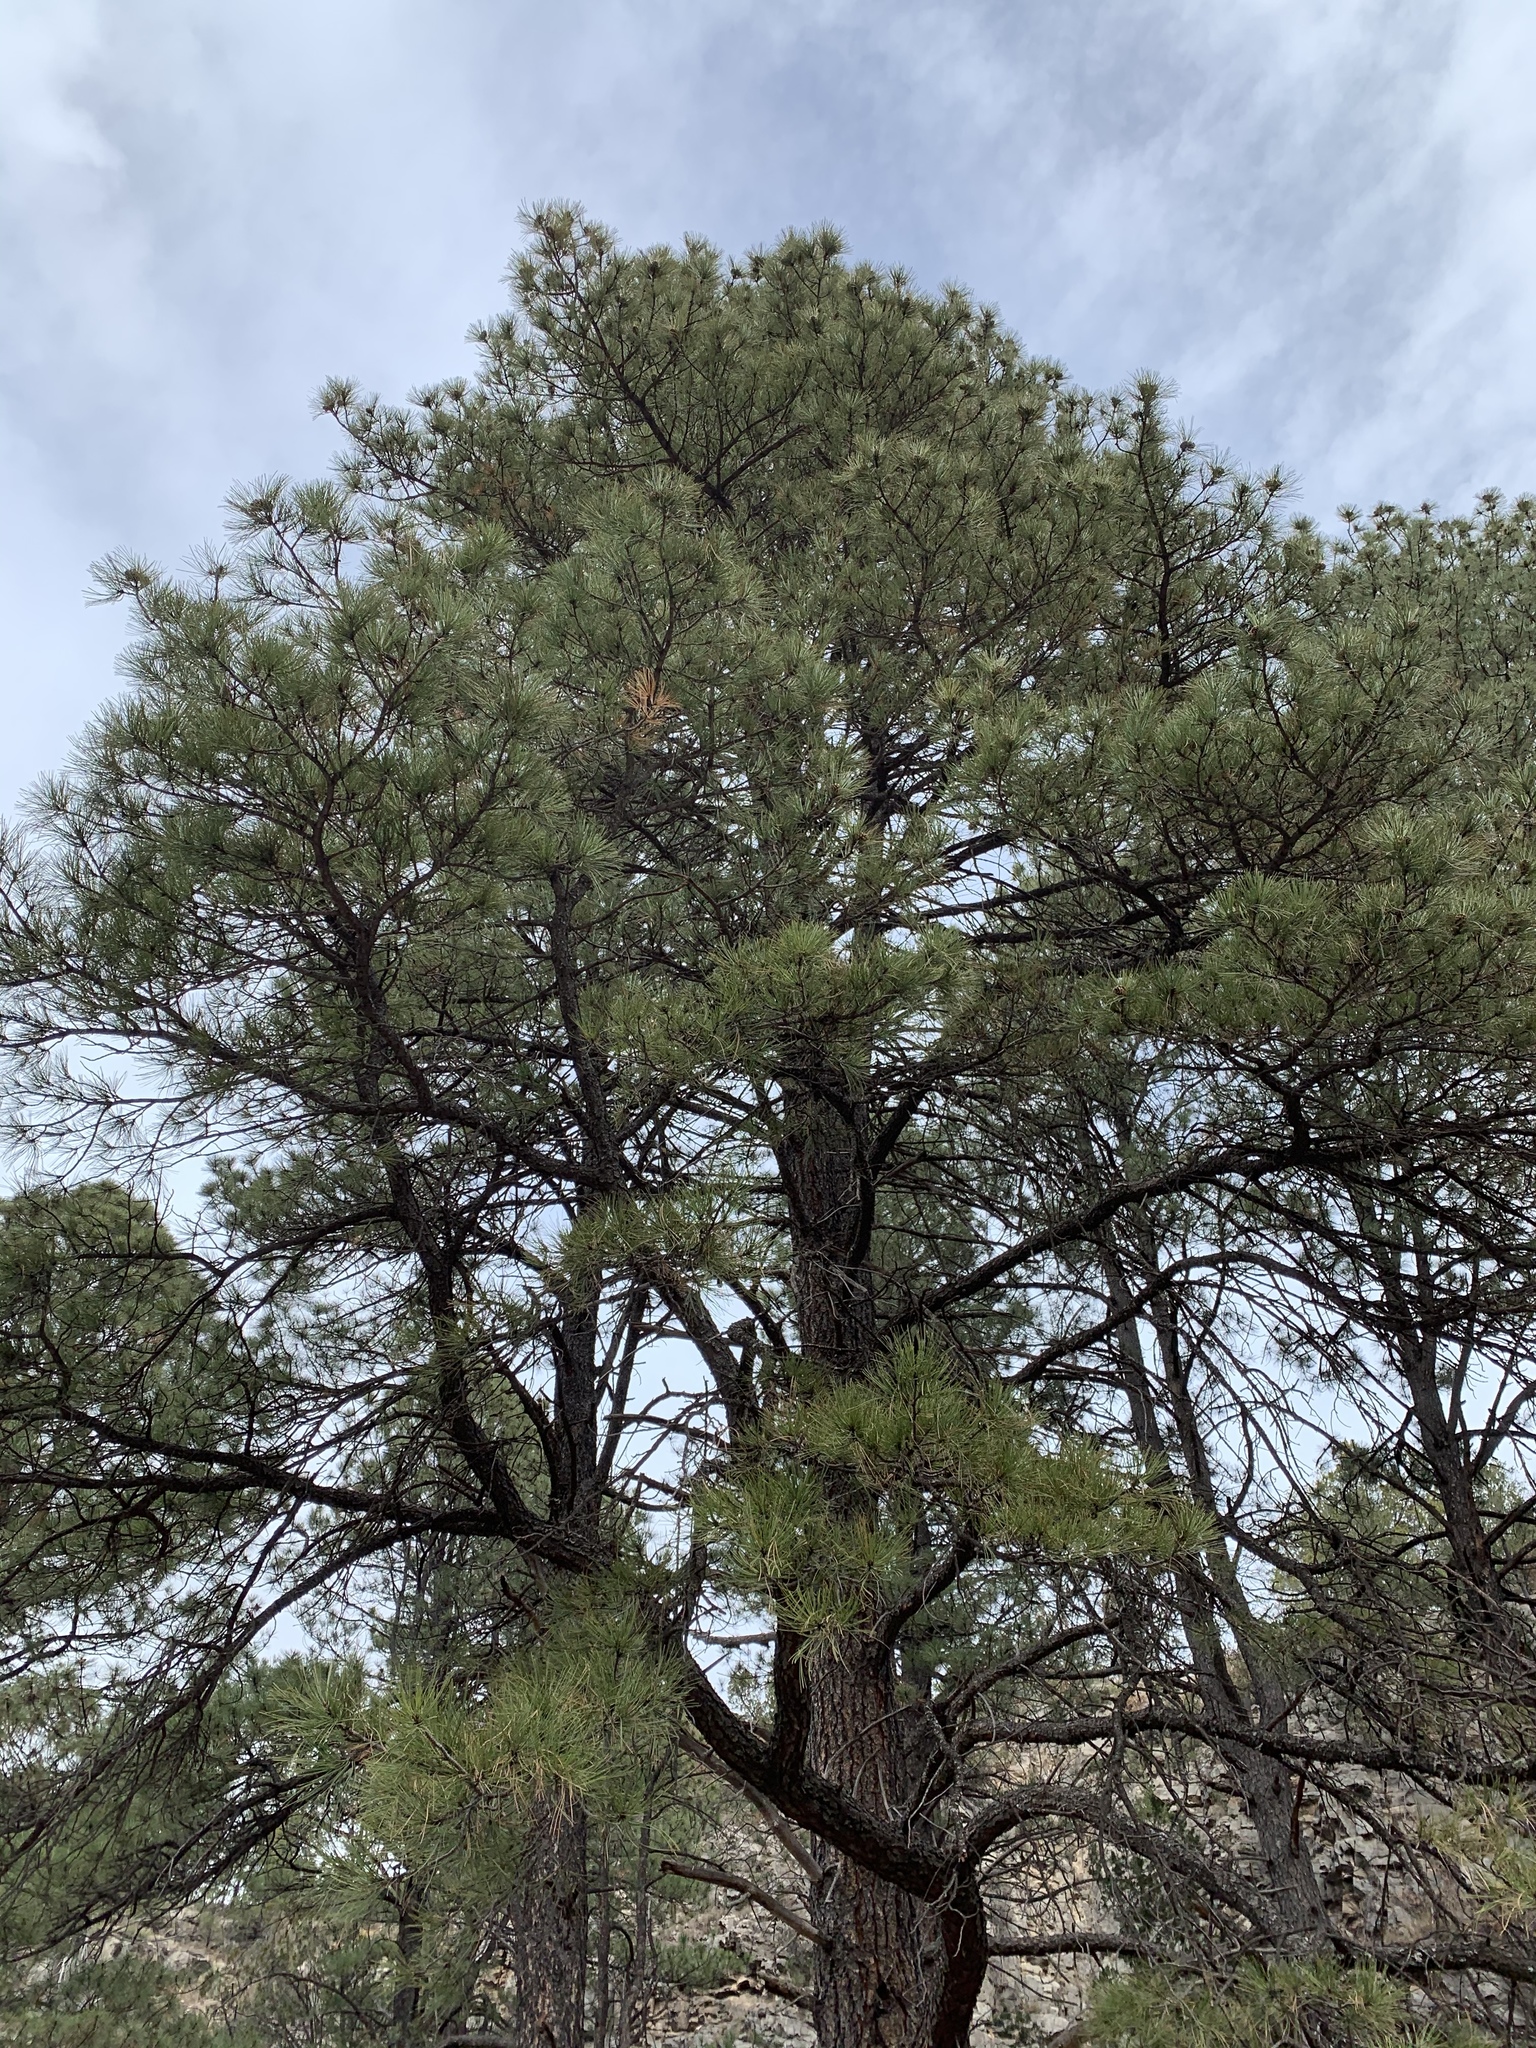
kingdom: Plantae
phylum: Tracheophyta
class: Pinopsida
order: Pinales
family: Pinaceae
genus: Pinus
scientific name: Pinus ponderosa
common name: Western yellow-pine
